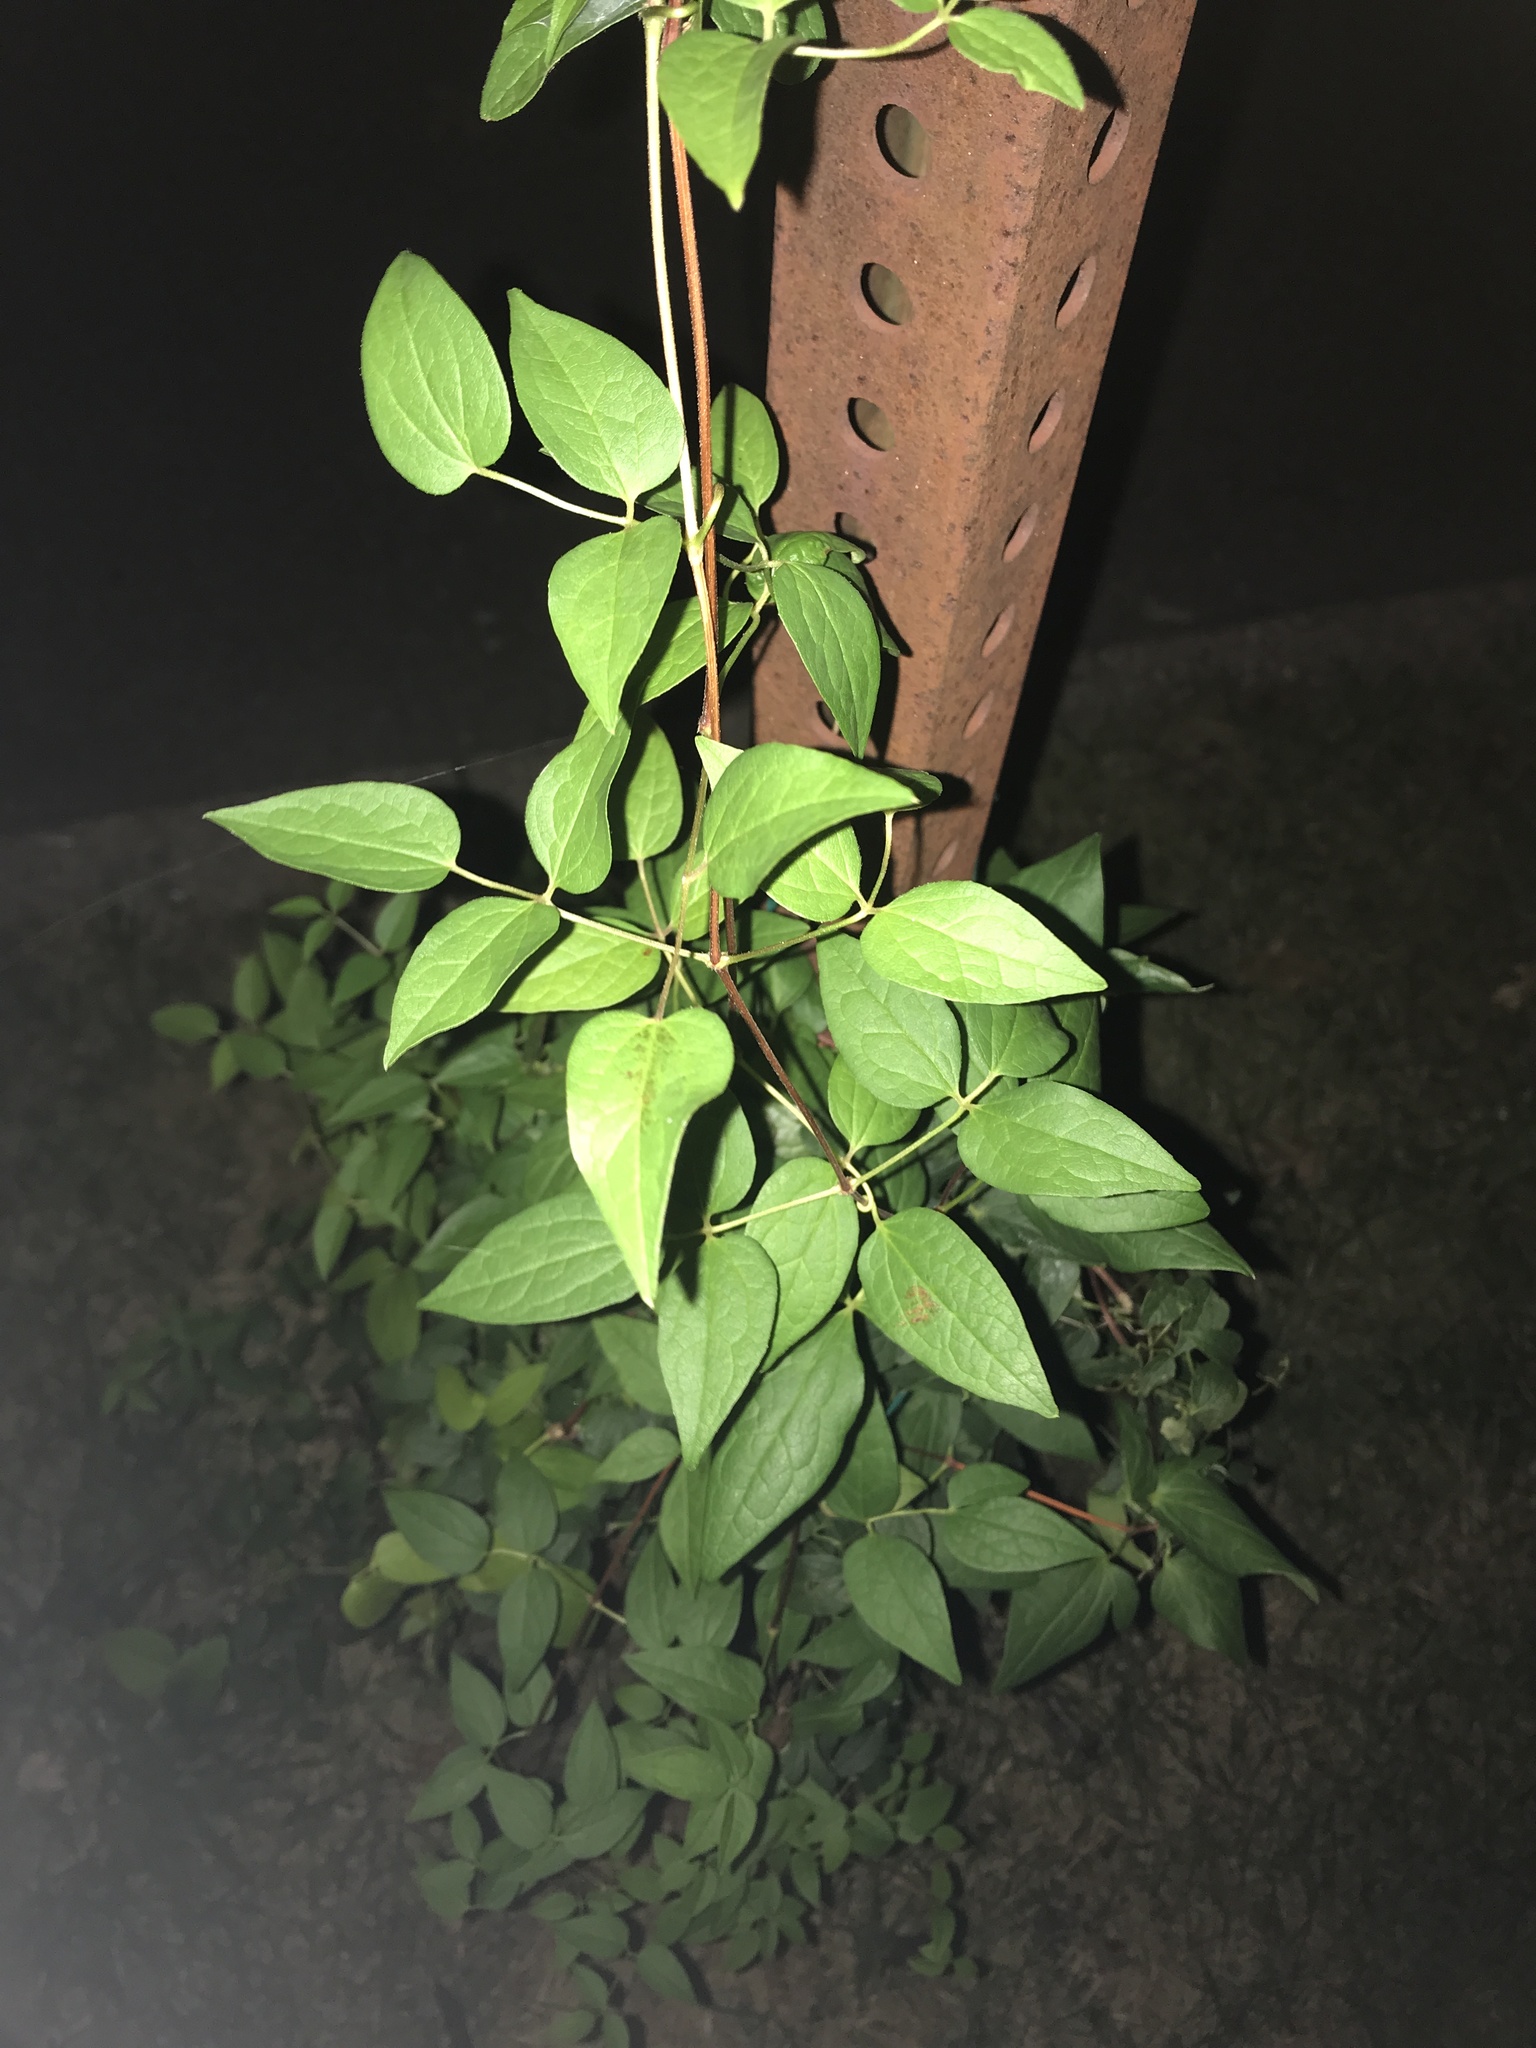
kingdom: Plantae
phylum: Tracheophyta
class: Magnoliopsida
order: Ranunculales
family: Ranunculaceae
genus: Clematis
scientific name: Clematis terniflora
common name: Sweet autumn clematis
